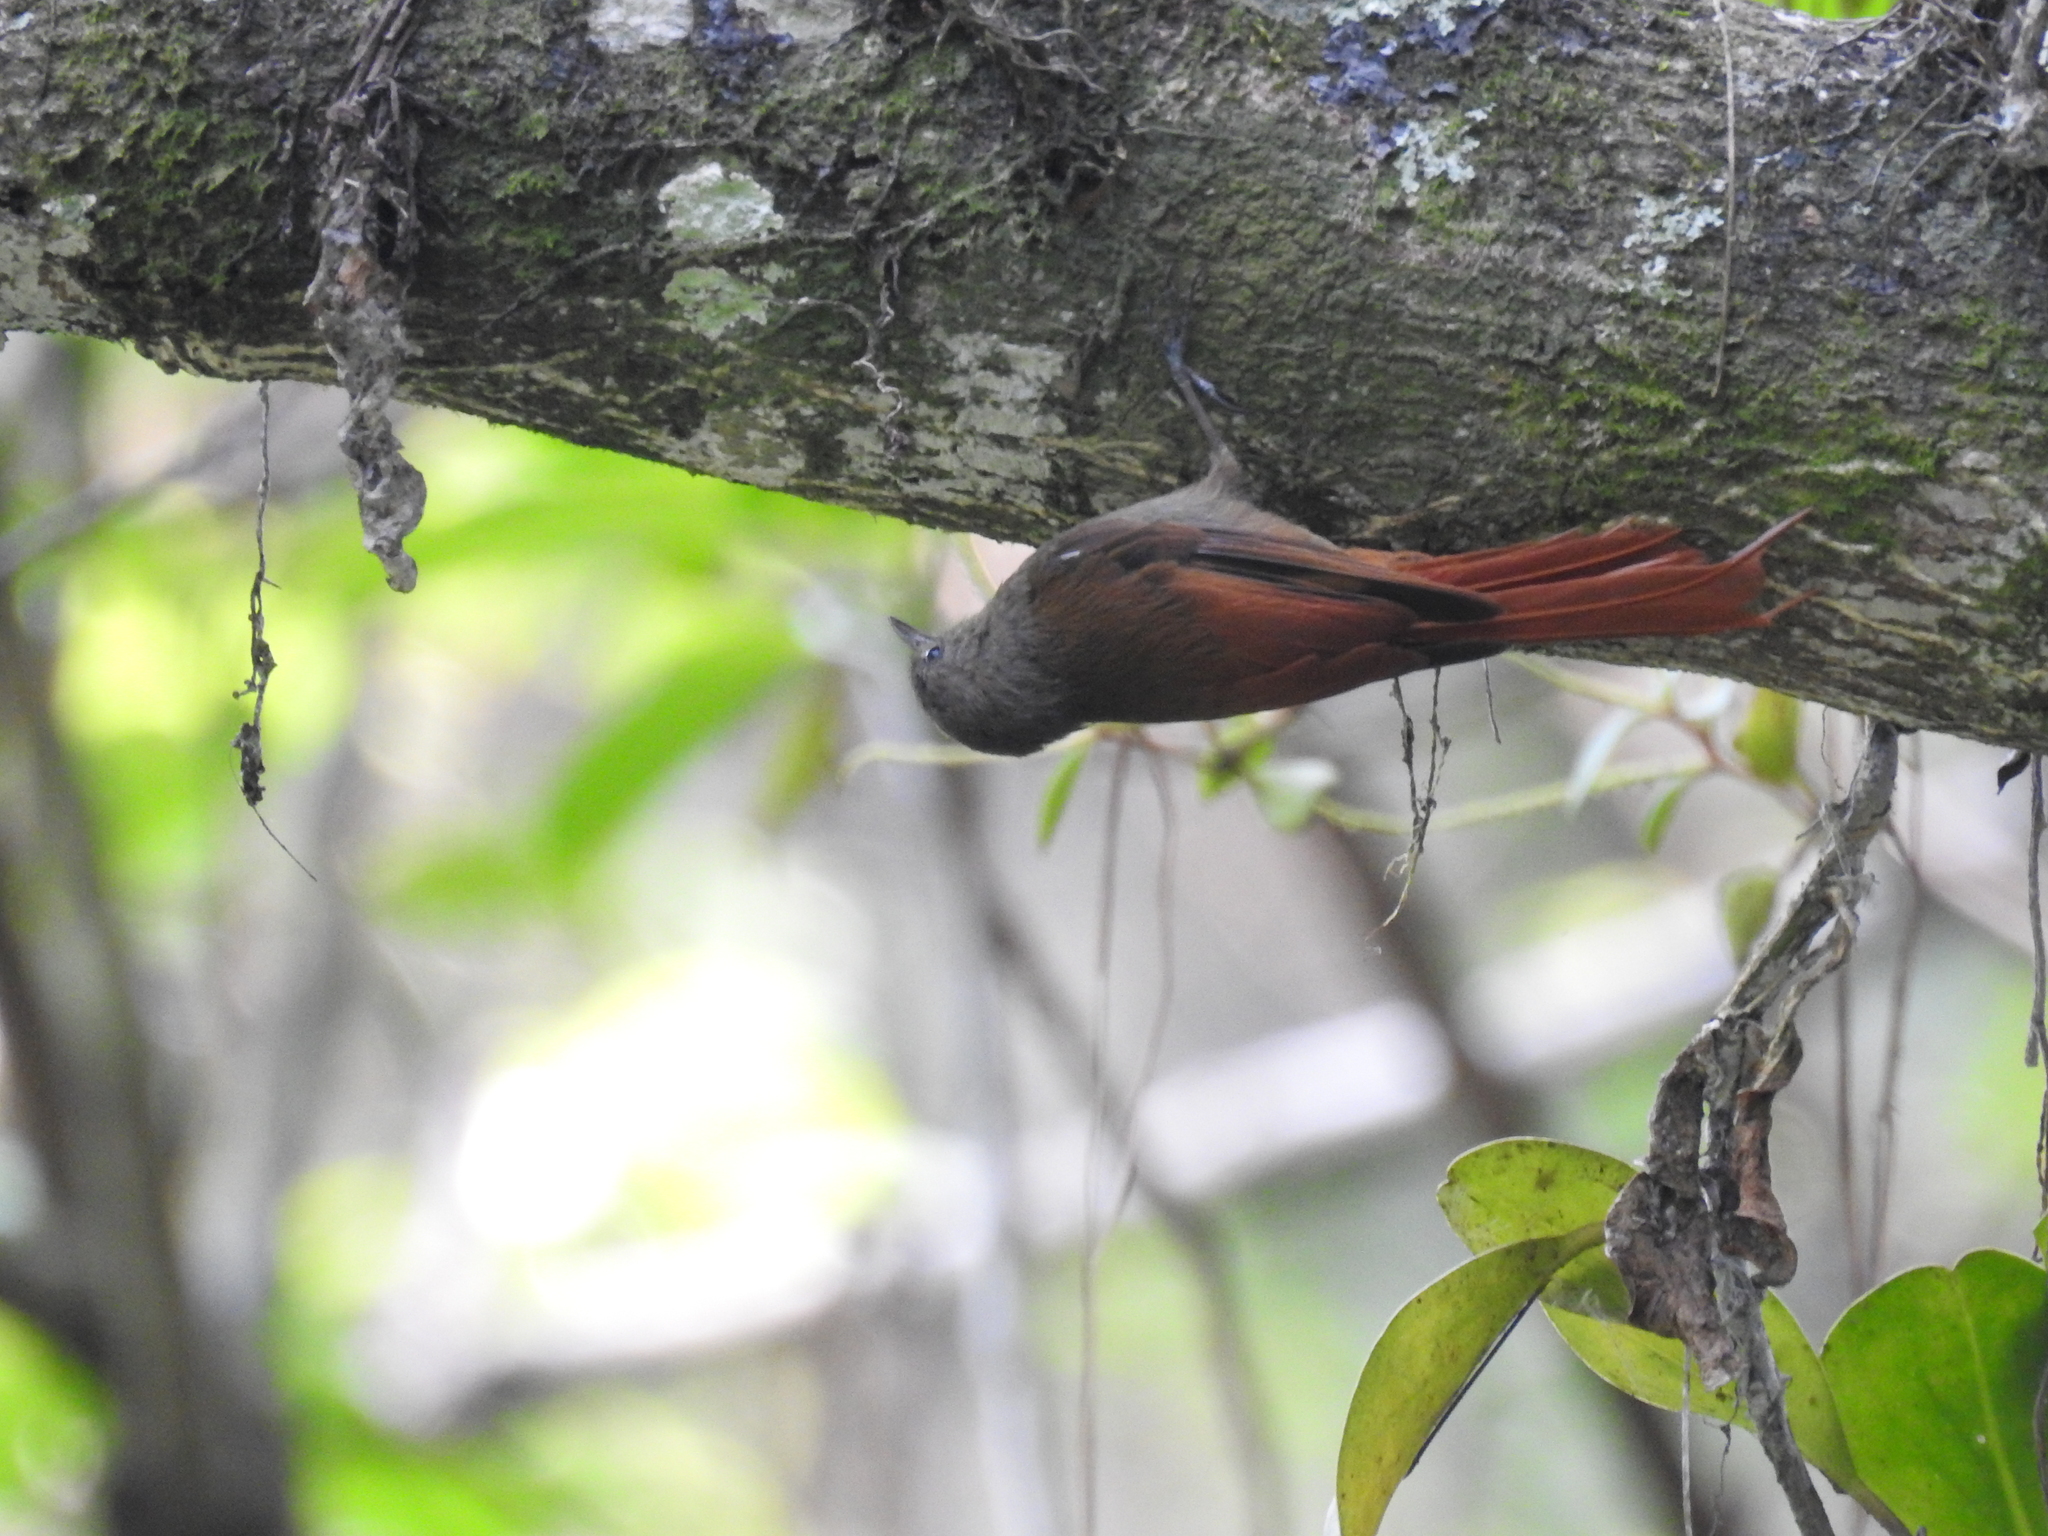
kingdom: Animalia
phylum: Chordata
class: Aves
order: Passeriformes
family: Furnariidae
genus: Sittasomus
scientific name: Sittasomus griseicapillus
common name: Olivaceous woodcreeper
